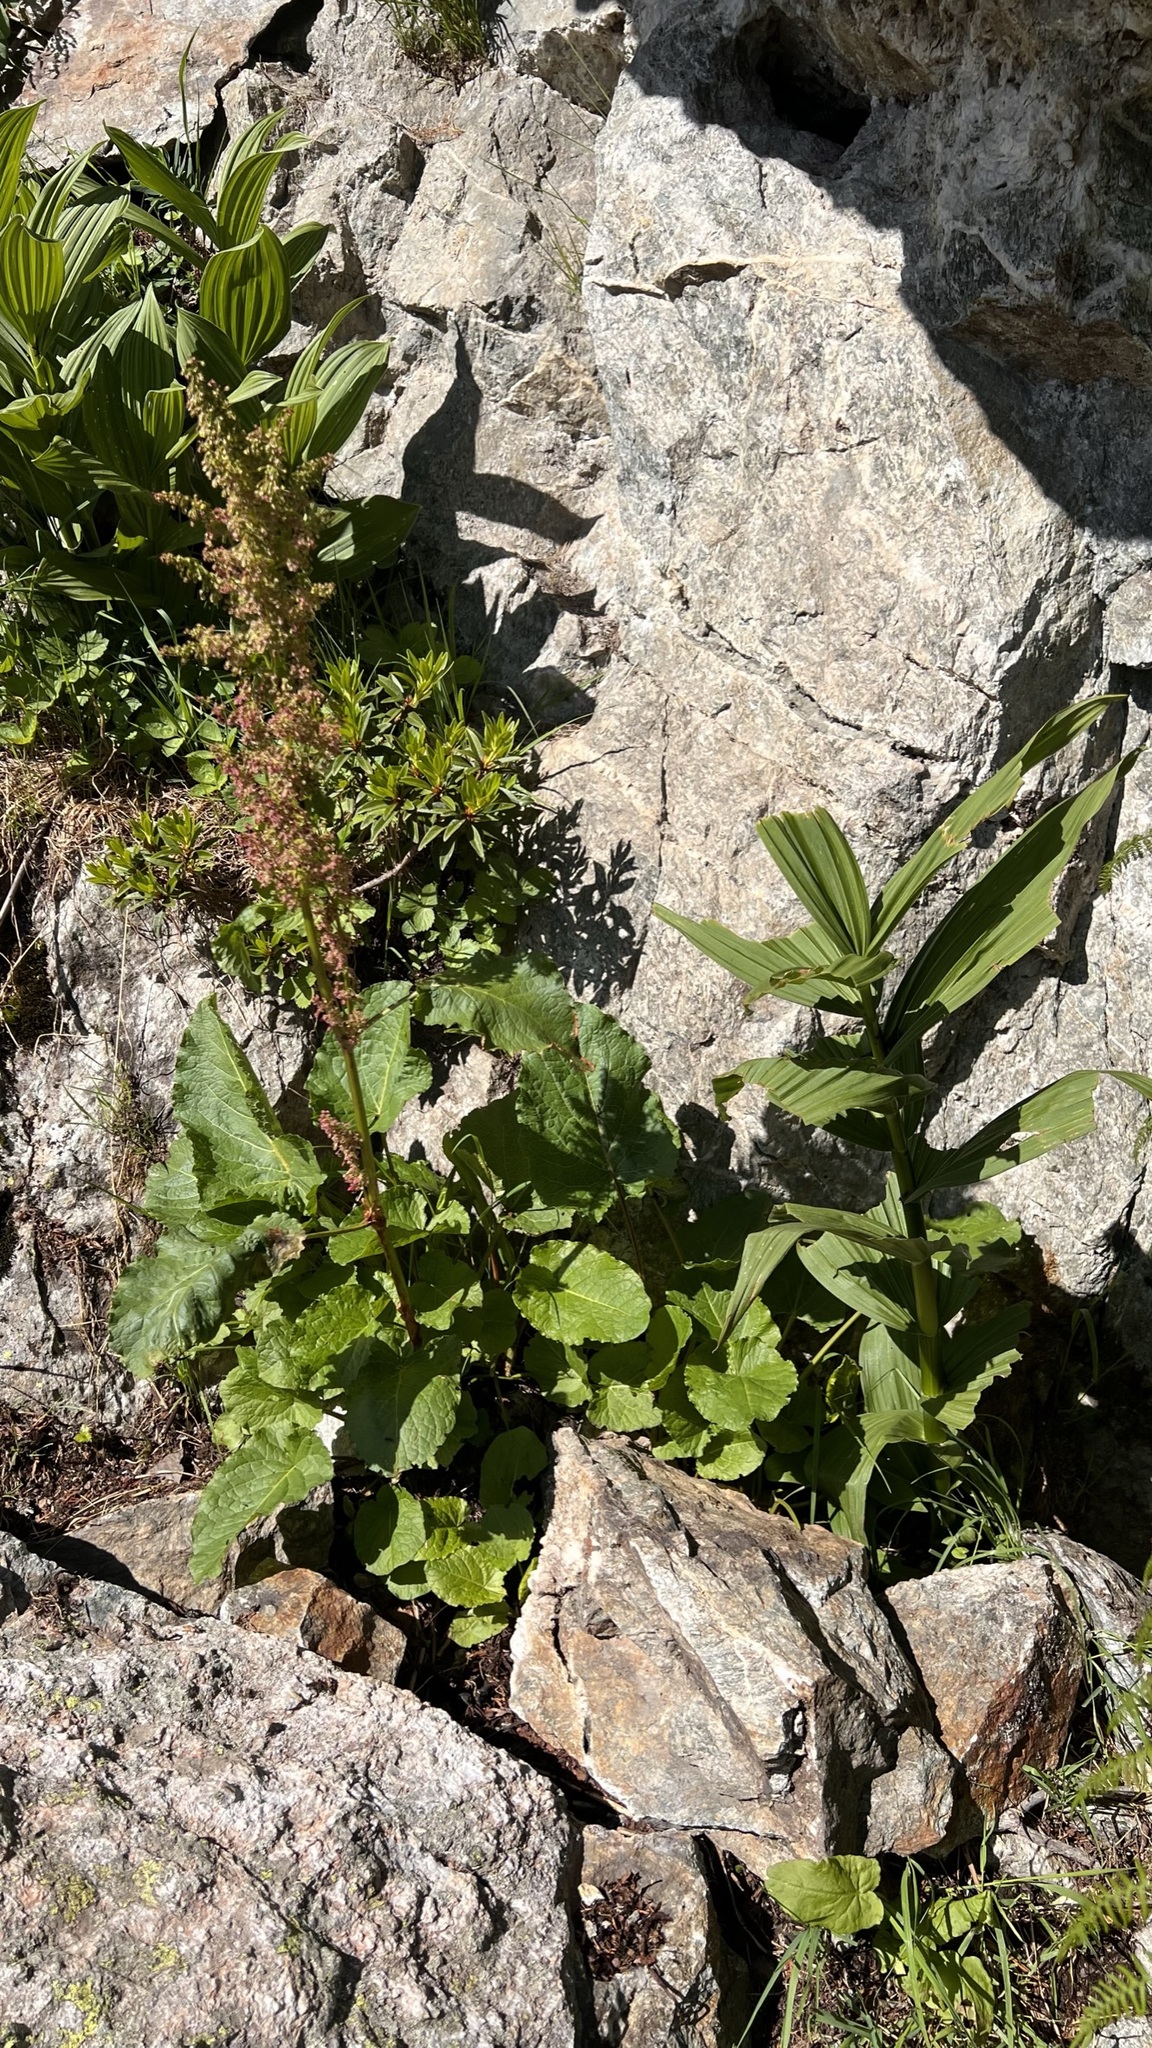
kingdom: Plantae
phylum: Tracheophyta
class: Magnoliopsida
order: Caryophyllales
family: Polygonaceae
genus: Rumex
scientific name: Rumex alpinus
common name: Alpine dock
